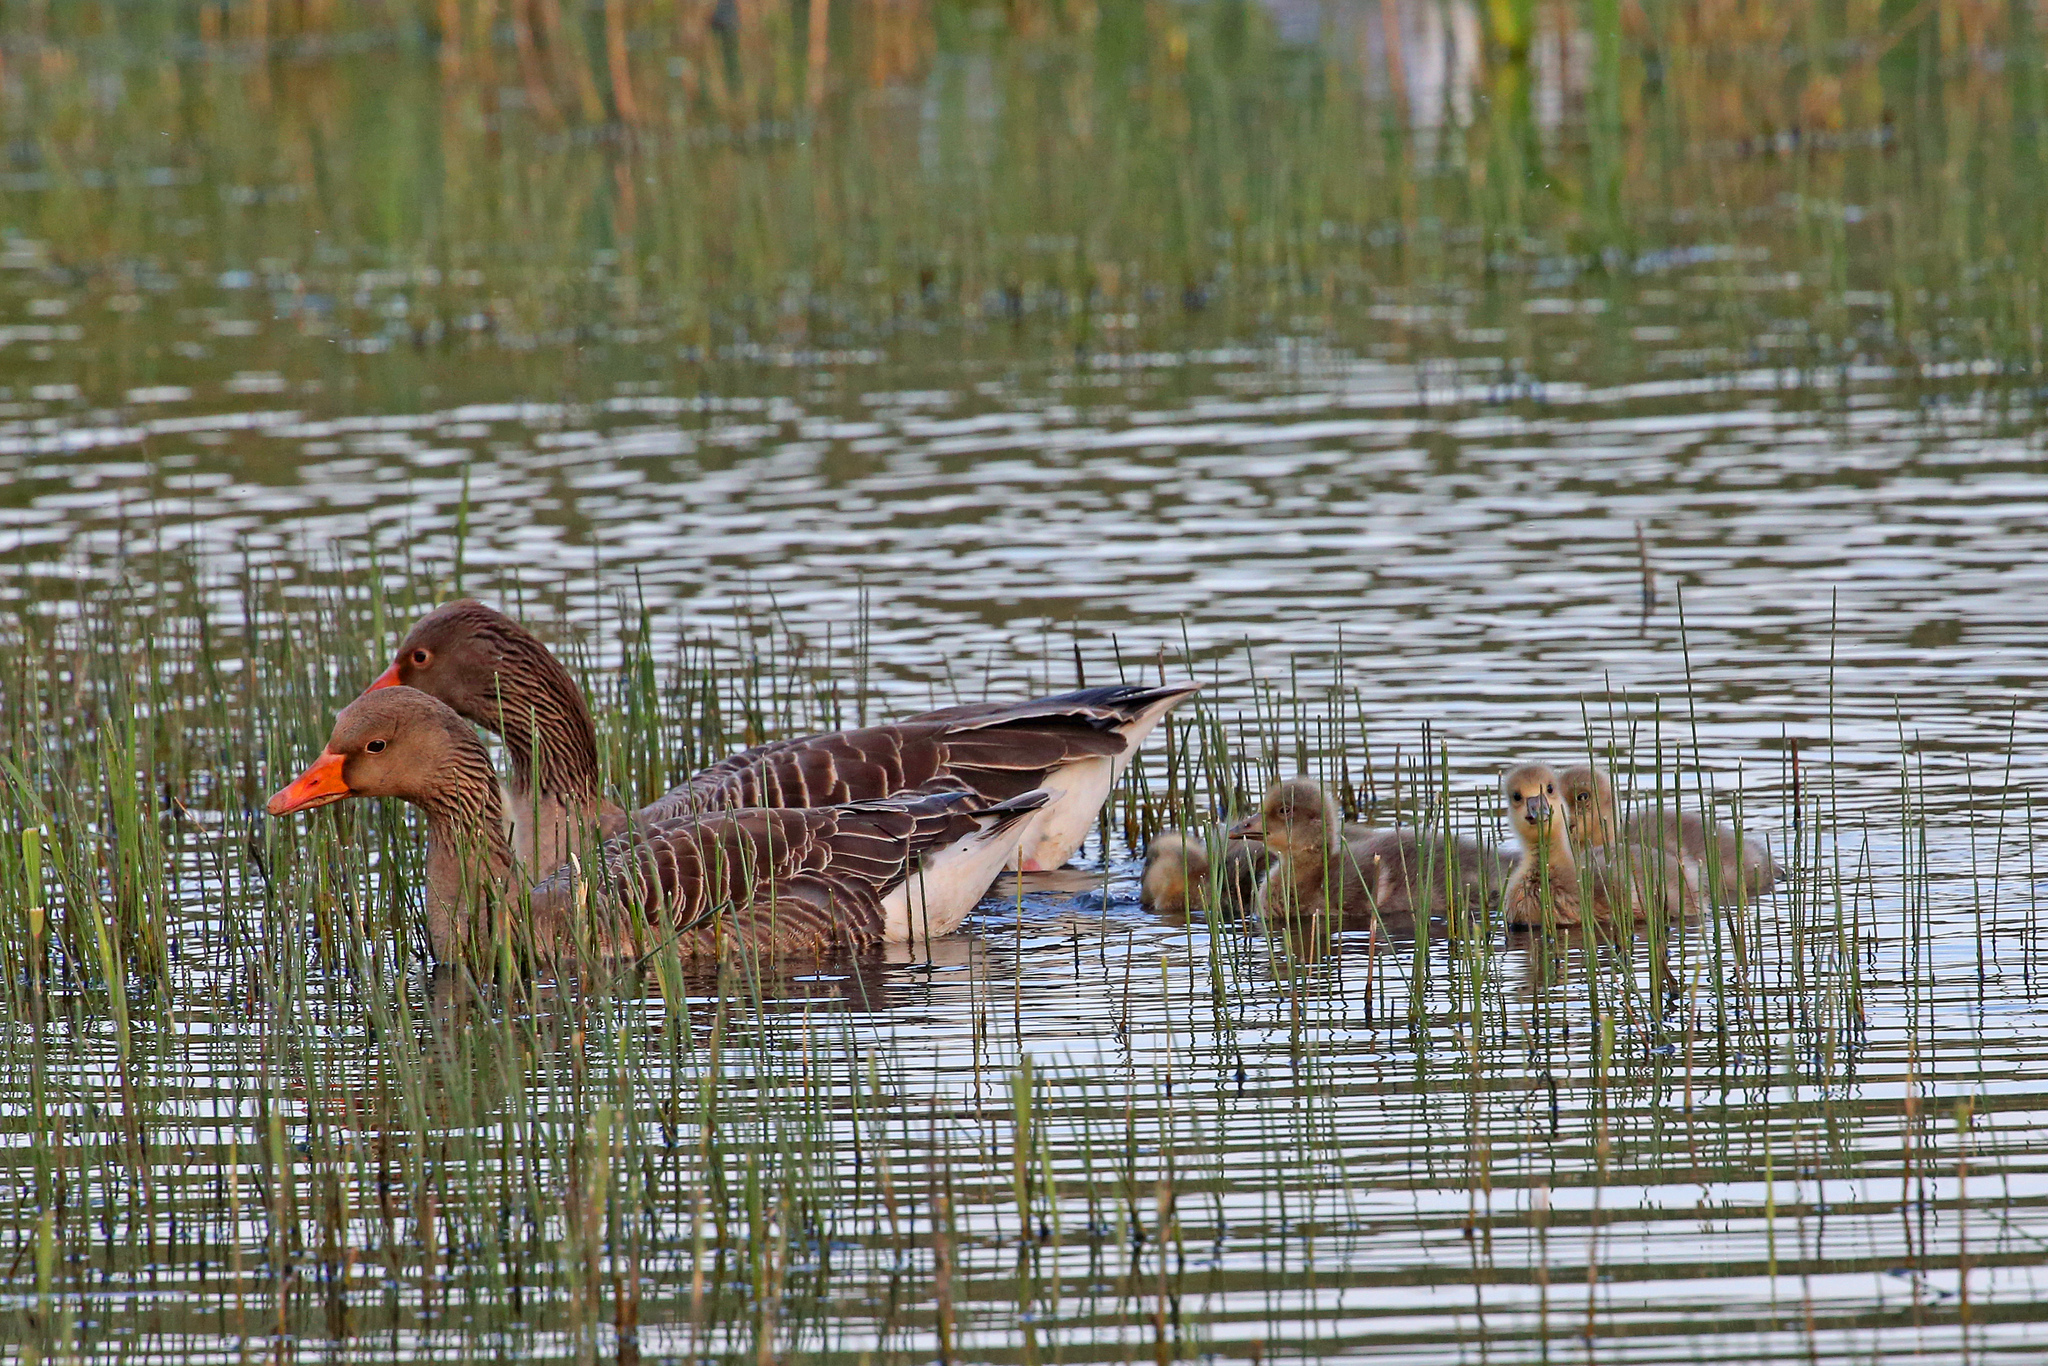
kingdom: Animalia
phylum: Chordata
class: Aves
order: Anseriformes
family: Anatidae
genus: Anser
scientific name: Anser anser
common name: Greylag goose
